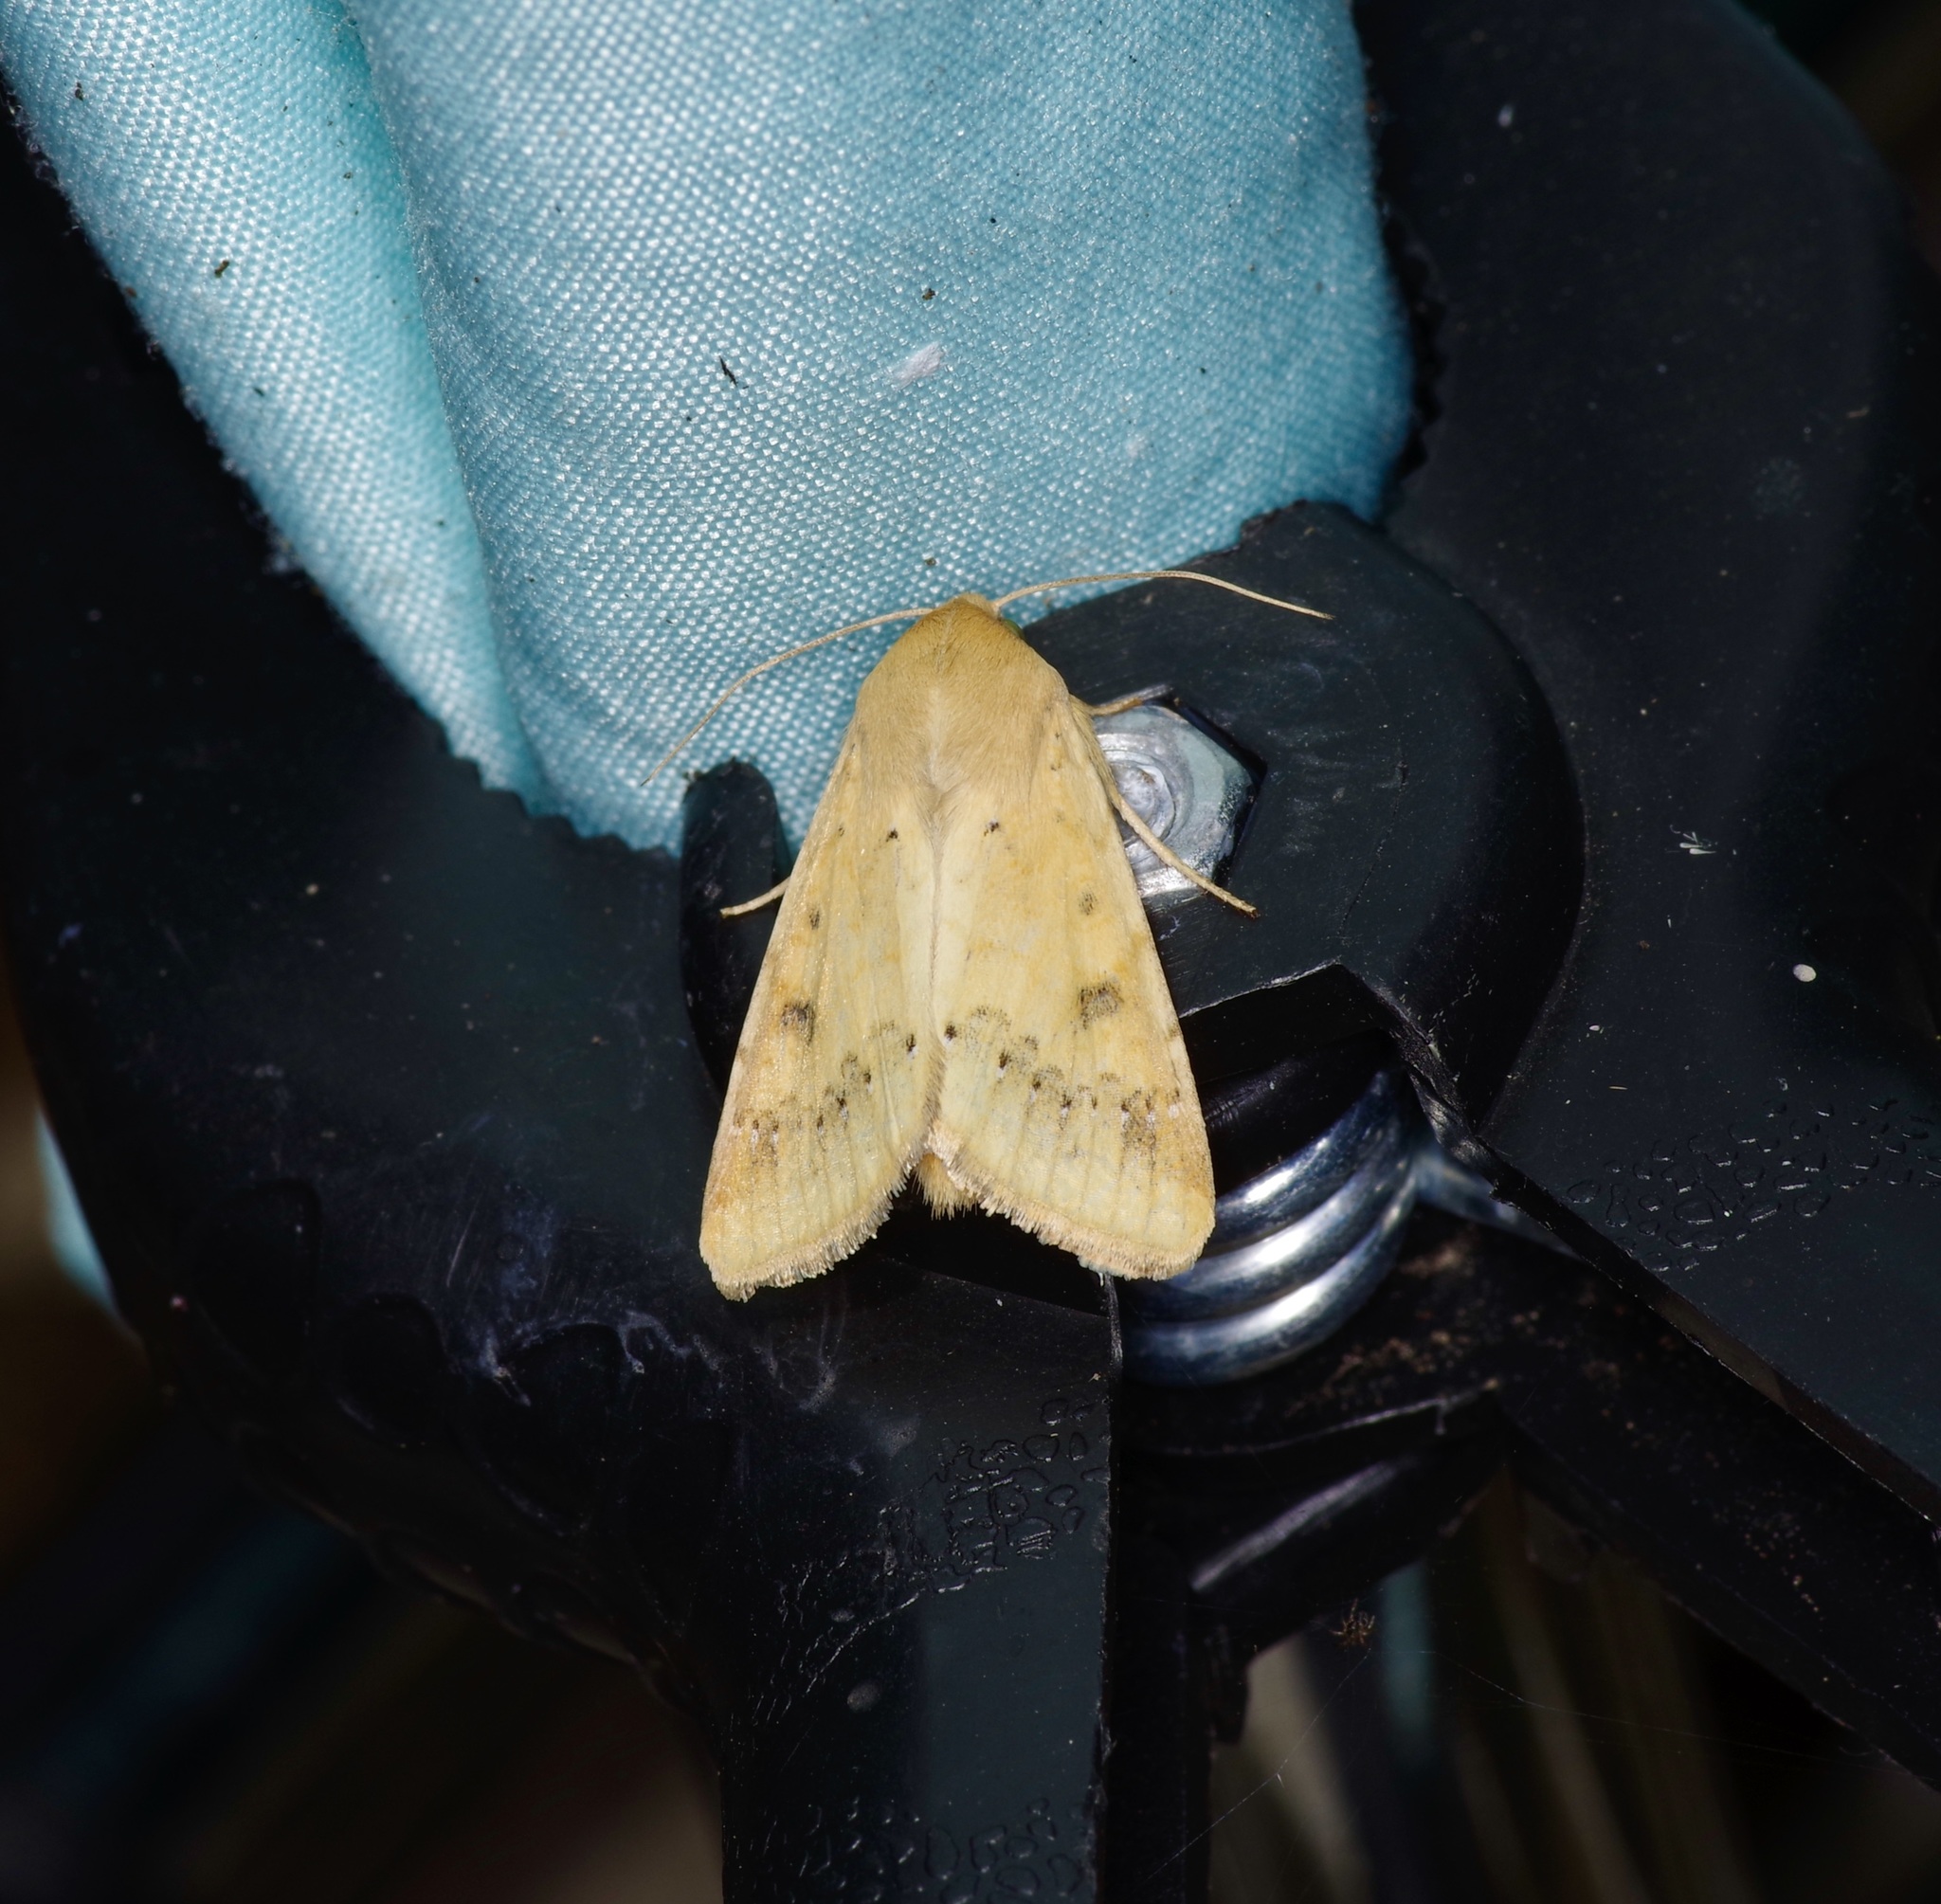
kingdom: Animalia
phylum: Arthropoda
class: Insecta
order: Lepidoptera
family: Noctuidae
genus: Helicoverpa
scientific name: Helicoverpa zea
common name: Bollworm
